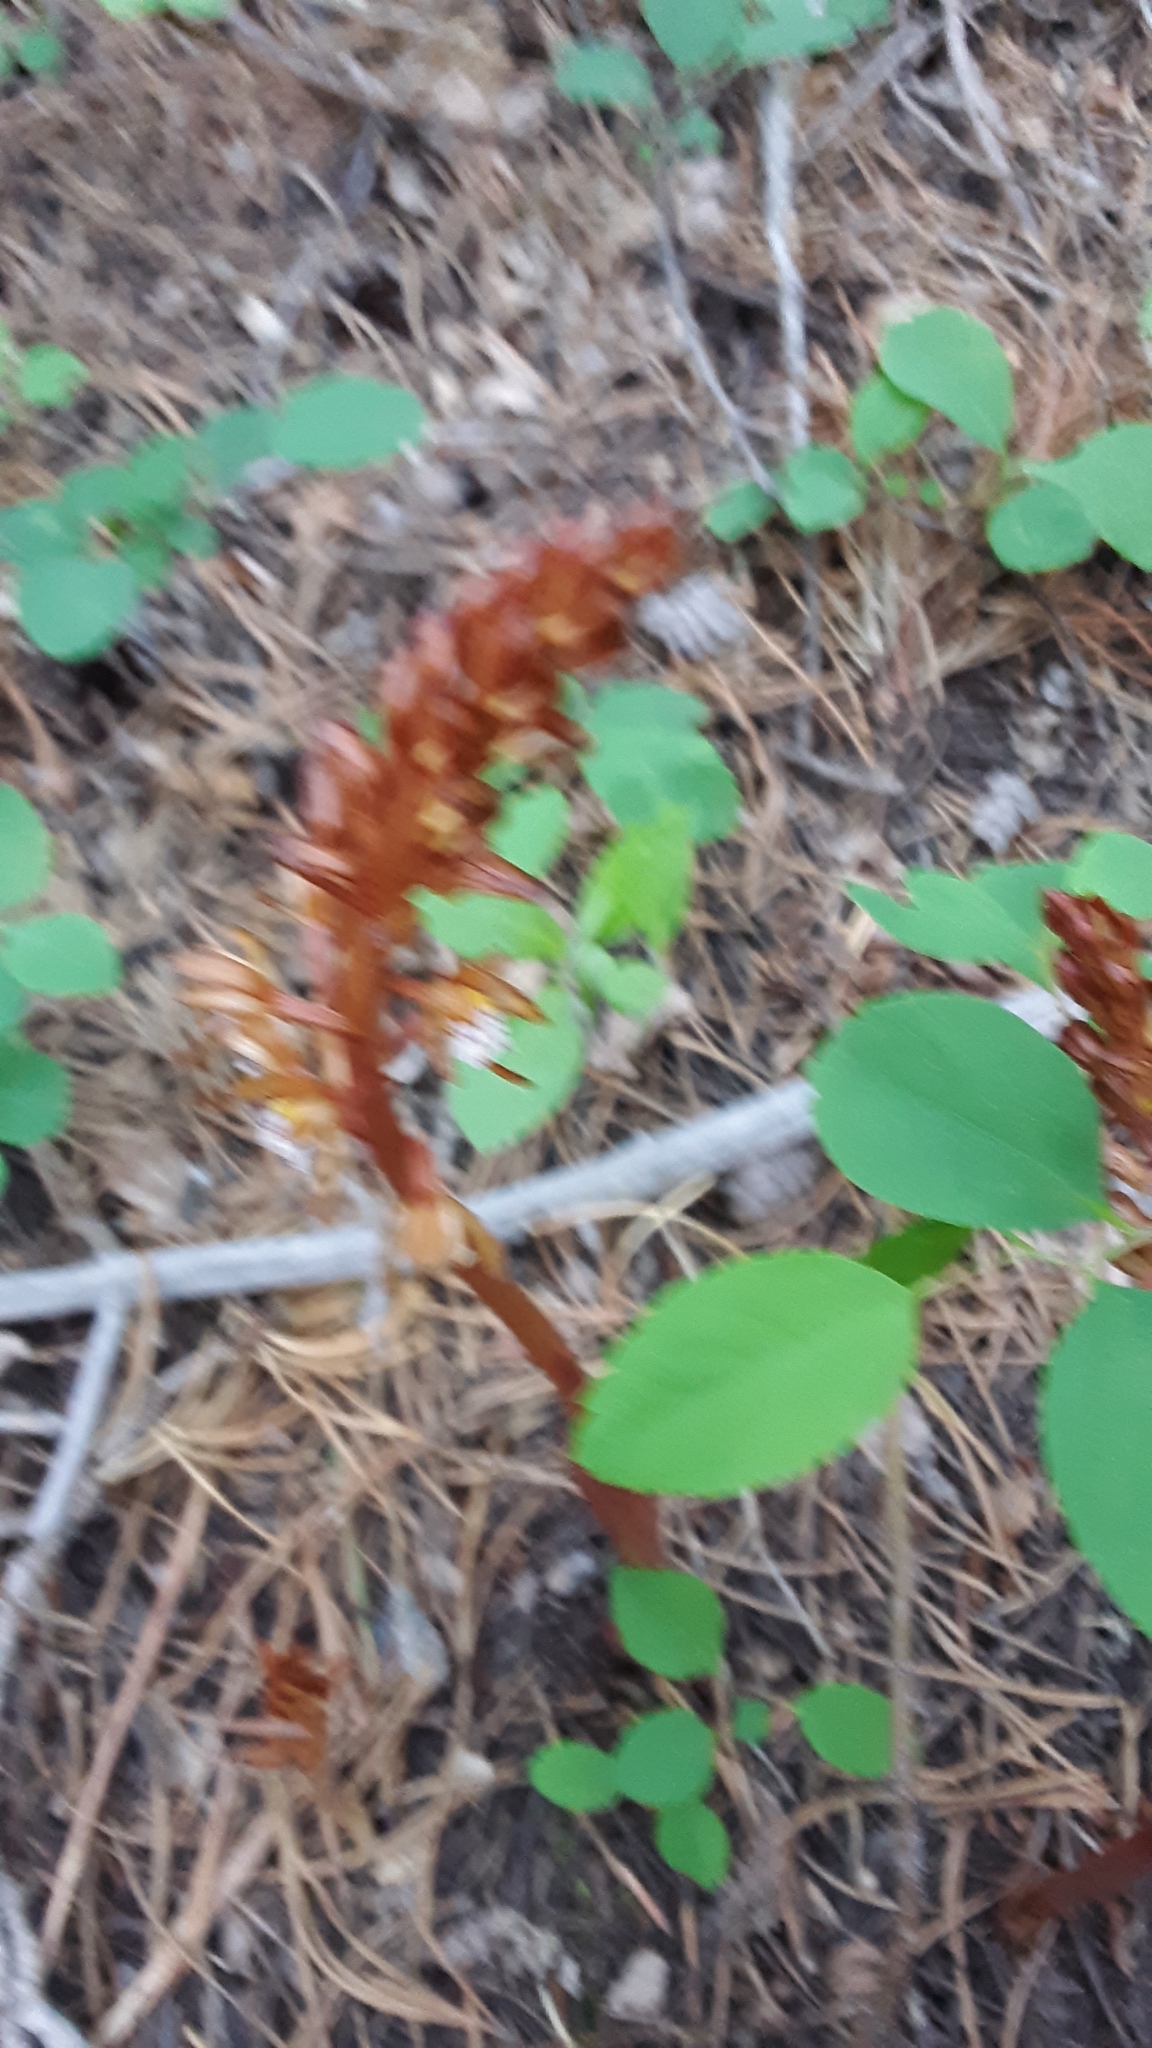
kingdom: Plantae
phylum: Tracheophyta
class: Liliopsida
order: Asparagales
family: Orchidaceae
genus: Corallorhiza
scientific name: Corallorhiza maculata
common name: Spotted coralroot
